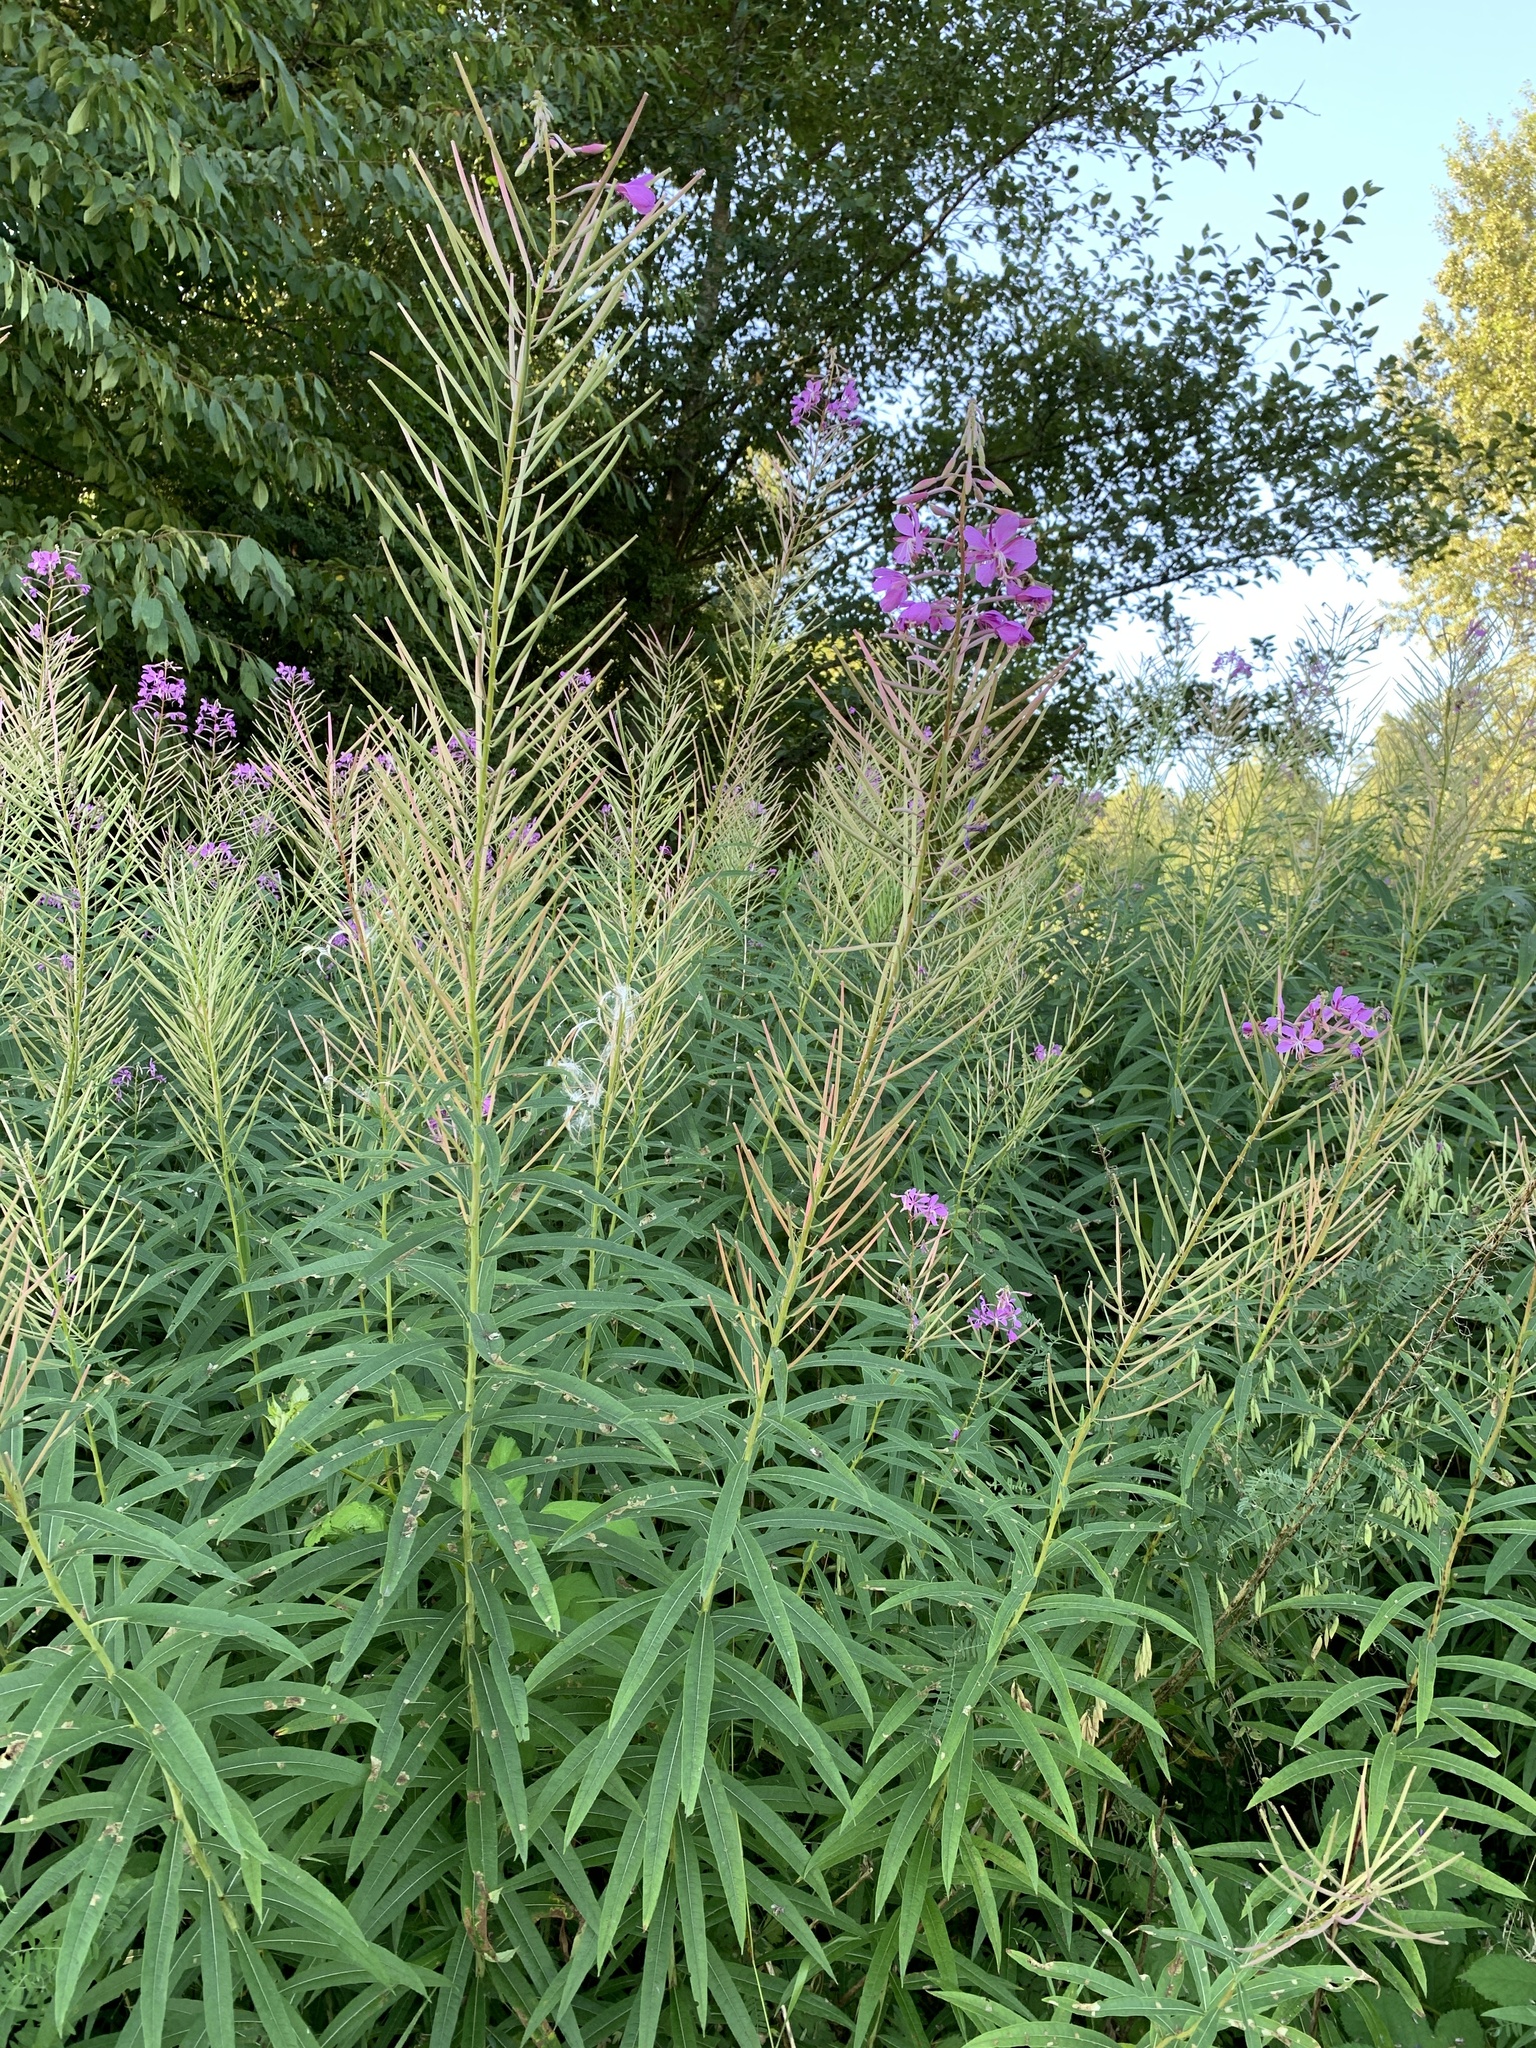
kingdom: Plantae
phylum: Tracheophyta
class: Magnoliopsida
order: Myrtales
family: Onagraceae
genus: Chamaenerion
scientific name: Chamaenerion angustifolium
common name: Fireweed
